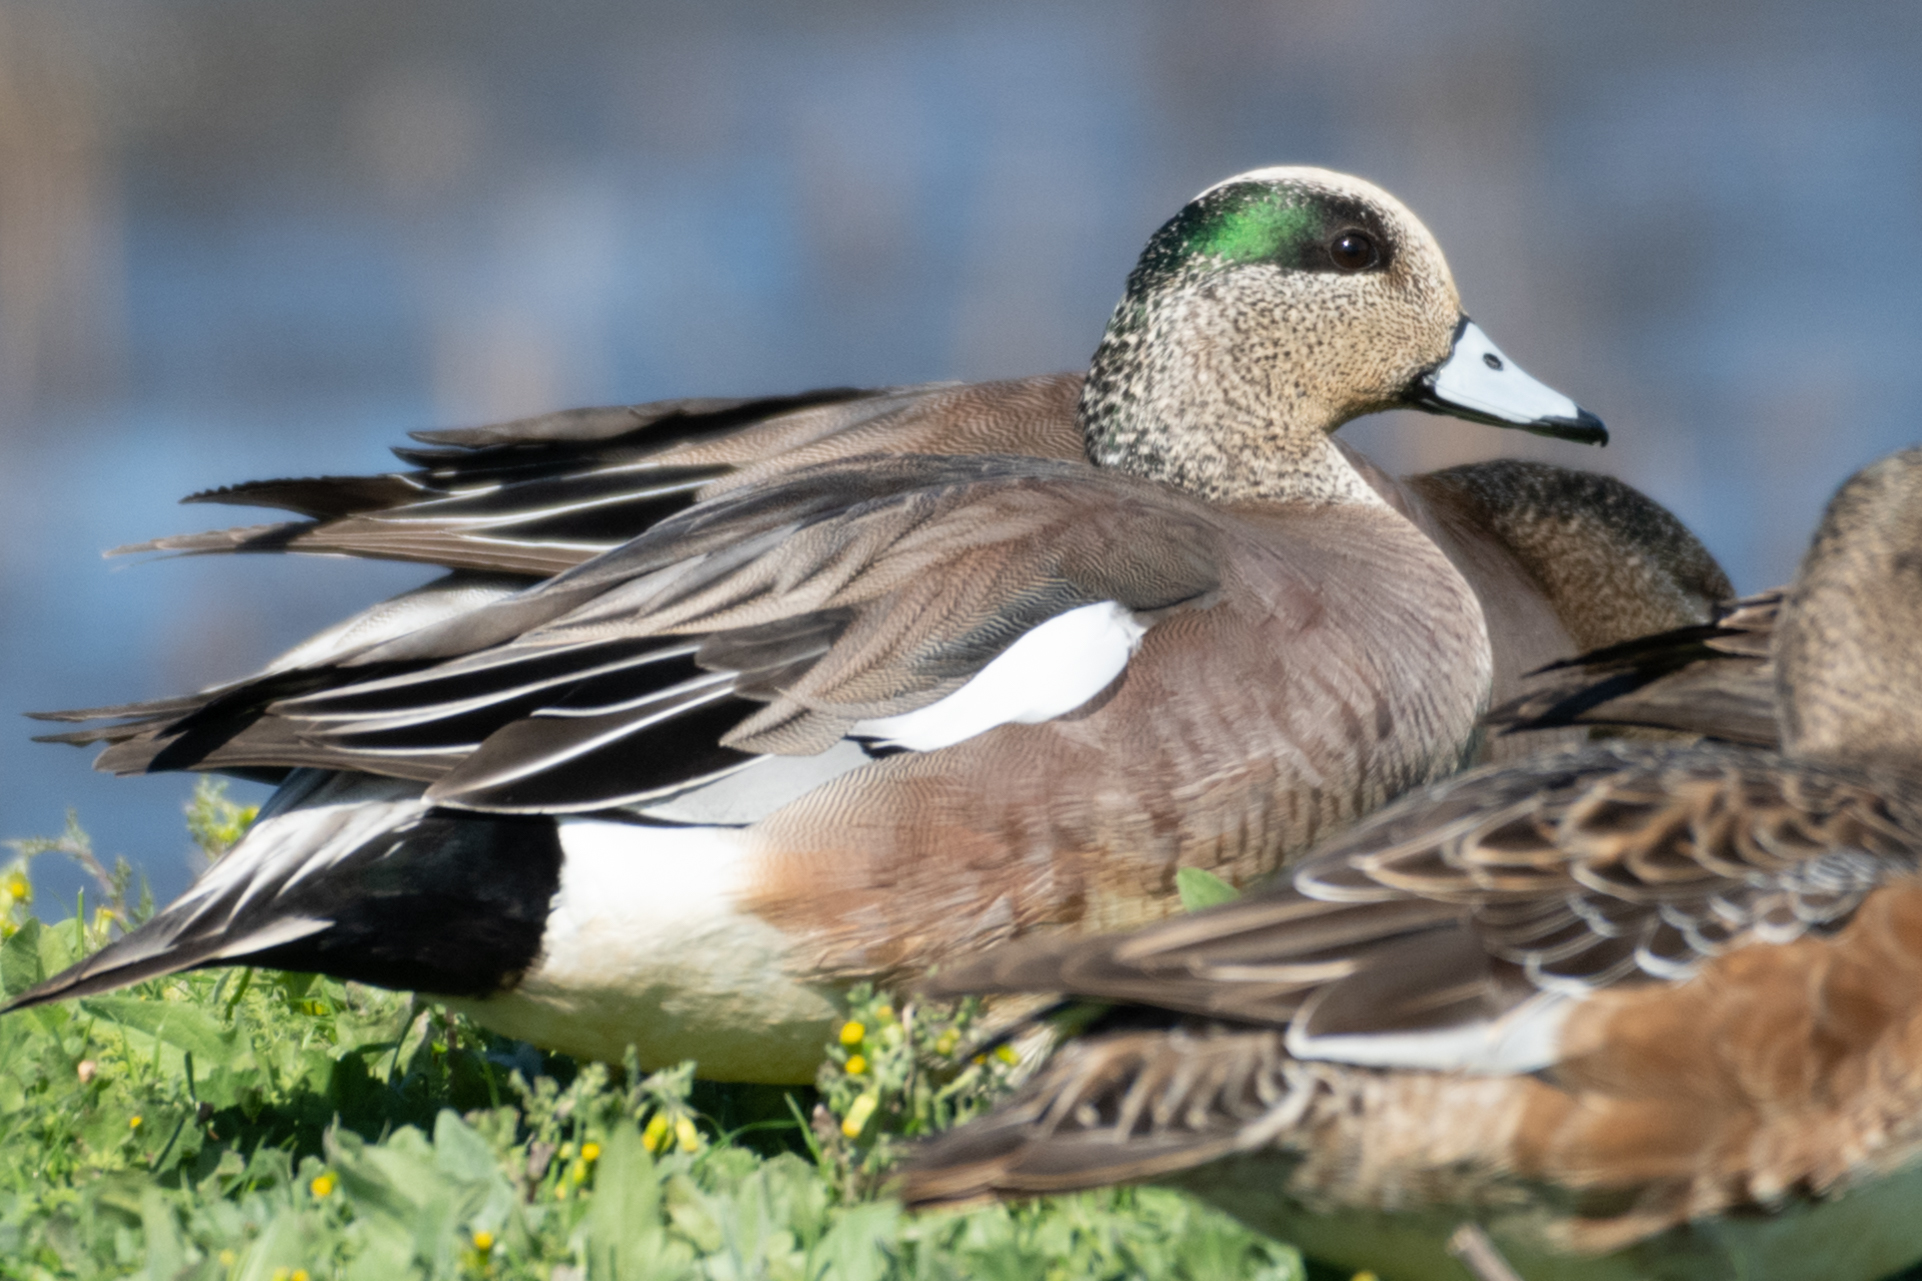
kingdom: Animalia
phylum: Chordata
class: Aves
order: Anseriformes
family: Anatidae
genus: Mareca
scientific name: Mareca americana
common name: American wigeon
